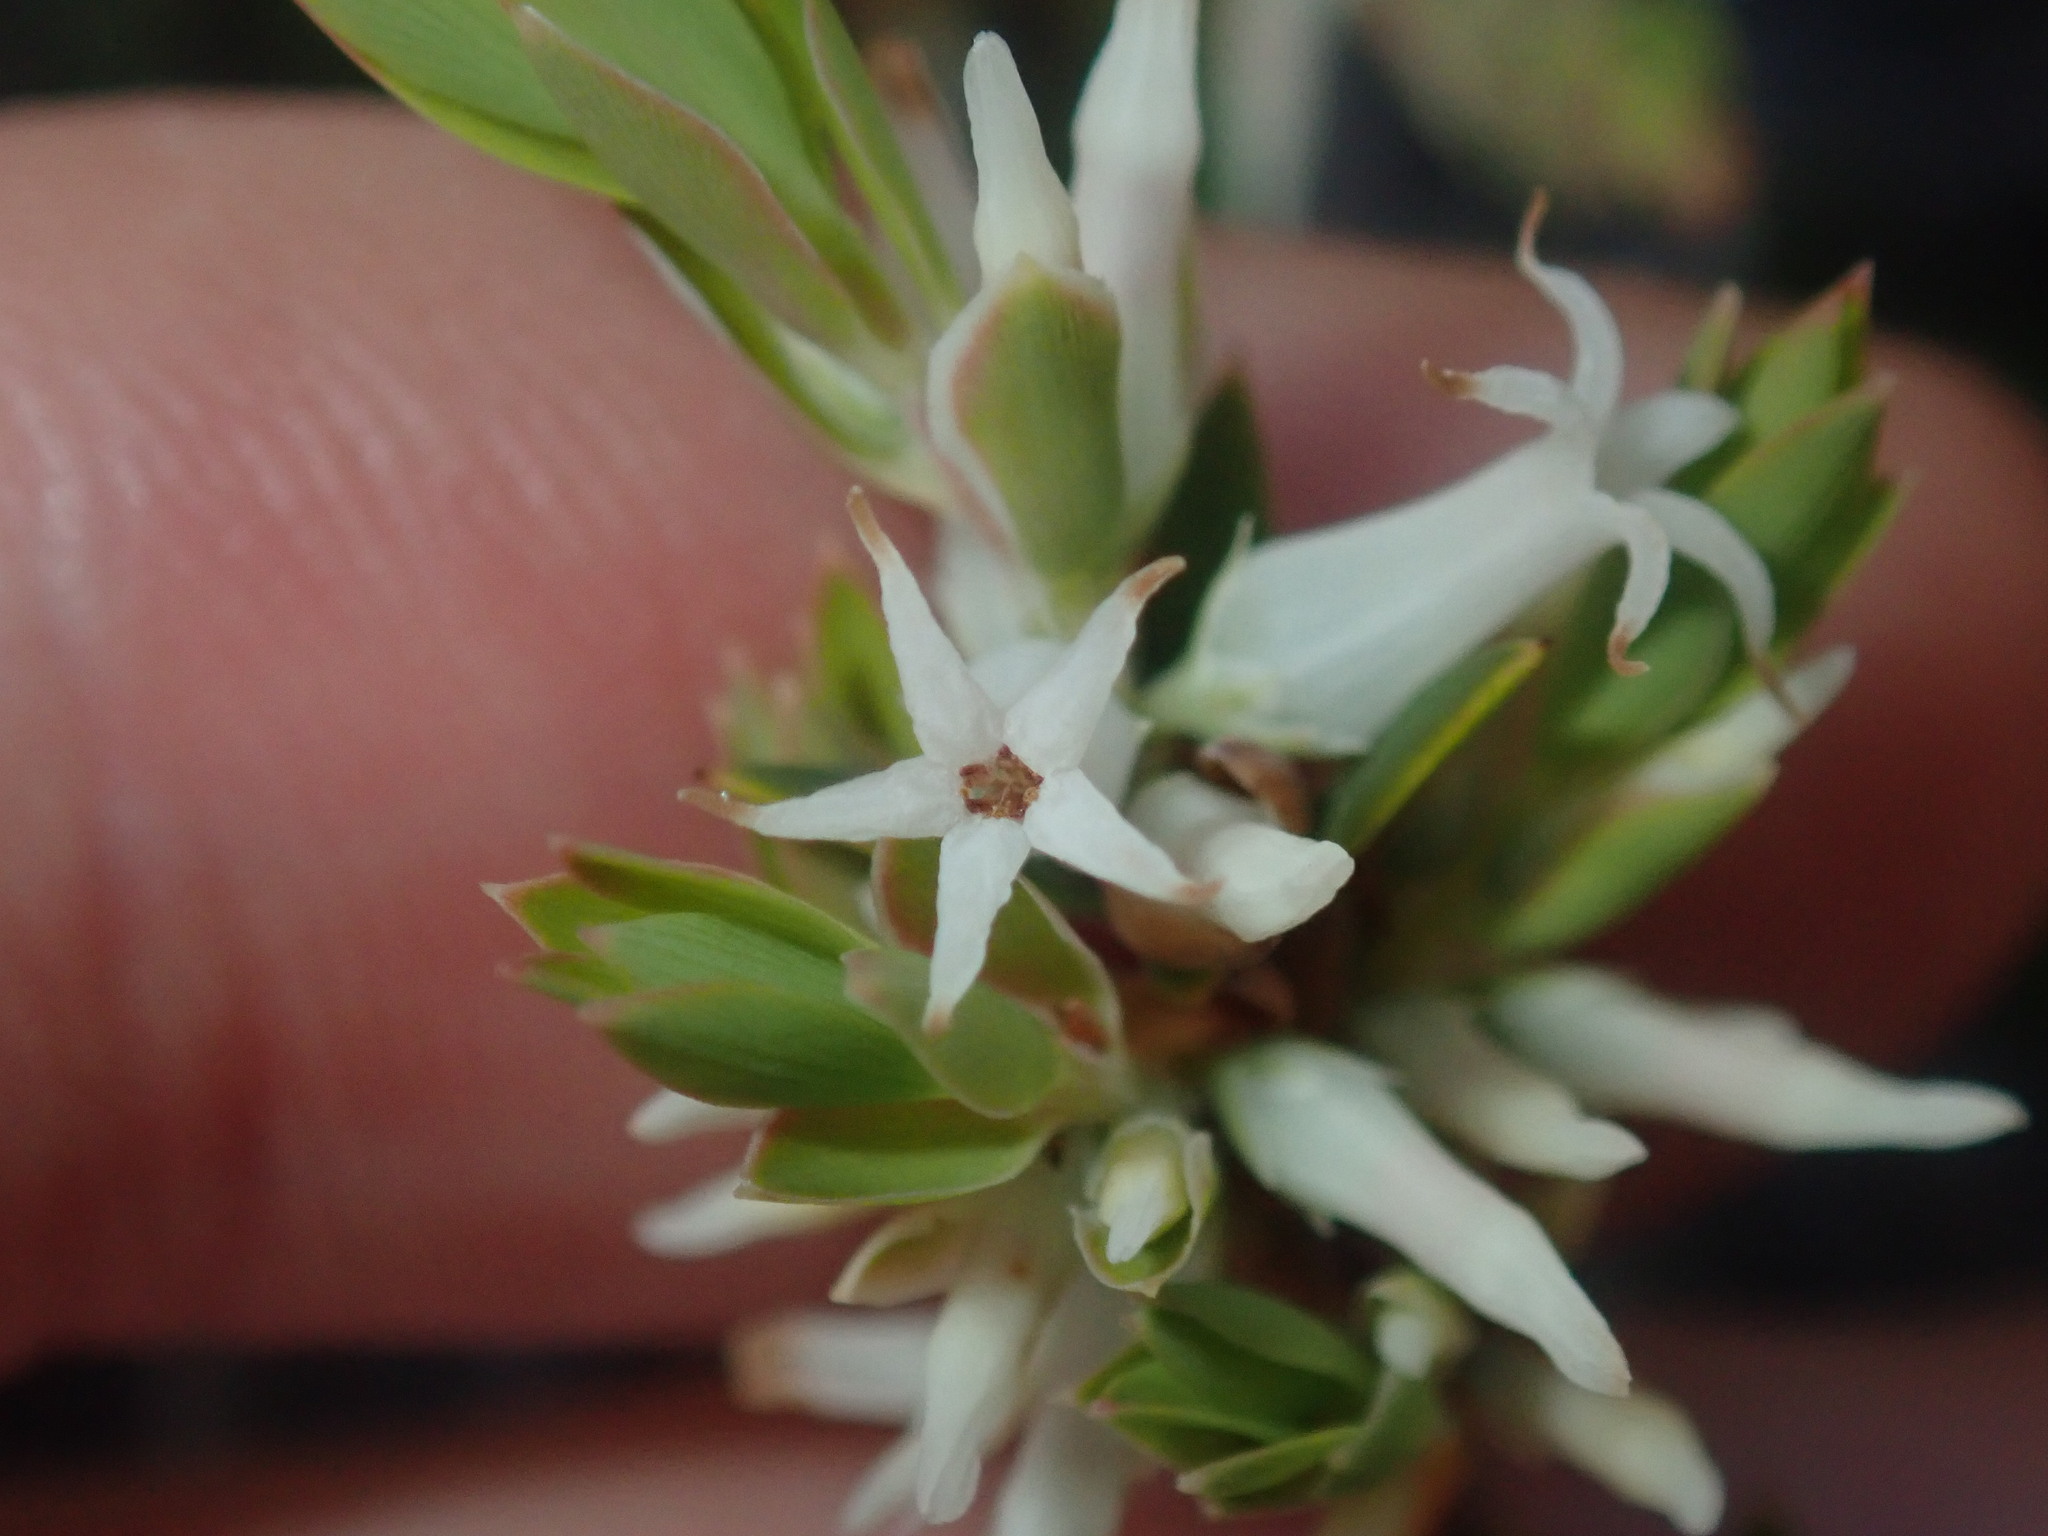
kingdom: Plantae
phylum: Tracheophyta
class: Magnoliopsida
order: Ericales
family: Ericaceae
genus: Brachyloma
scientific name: Brachyloma daphnoides
